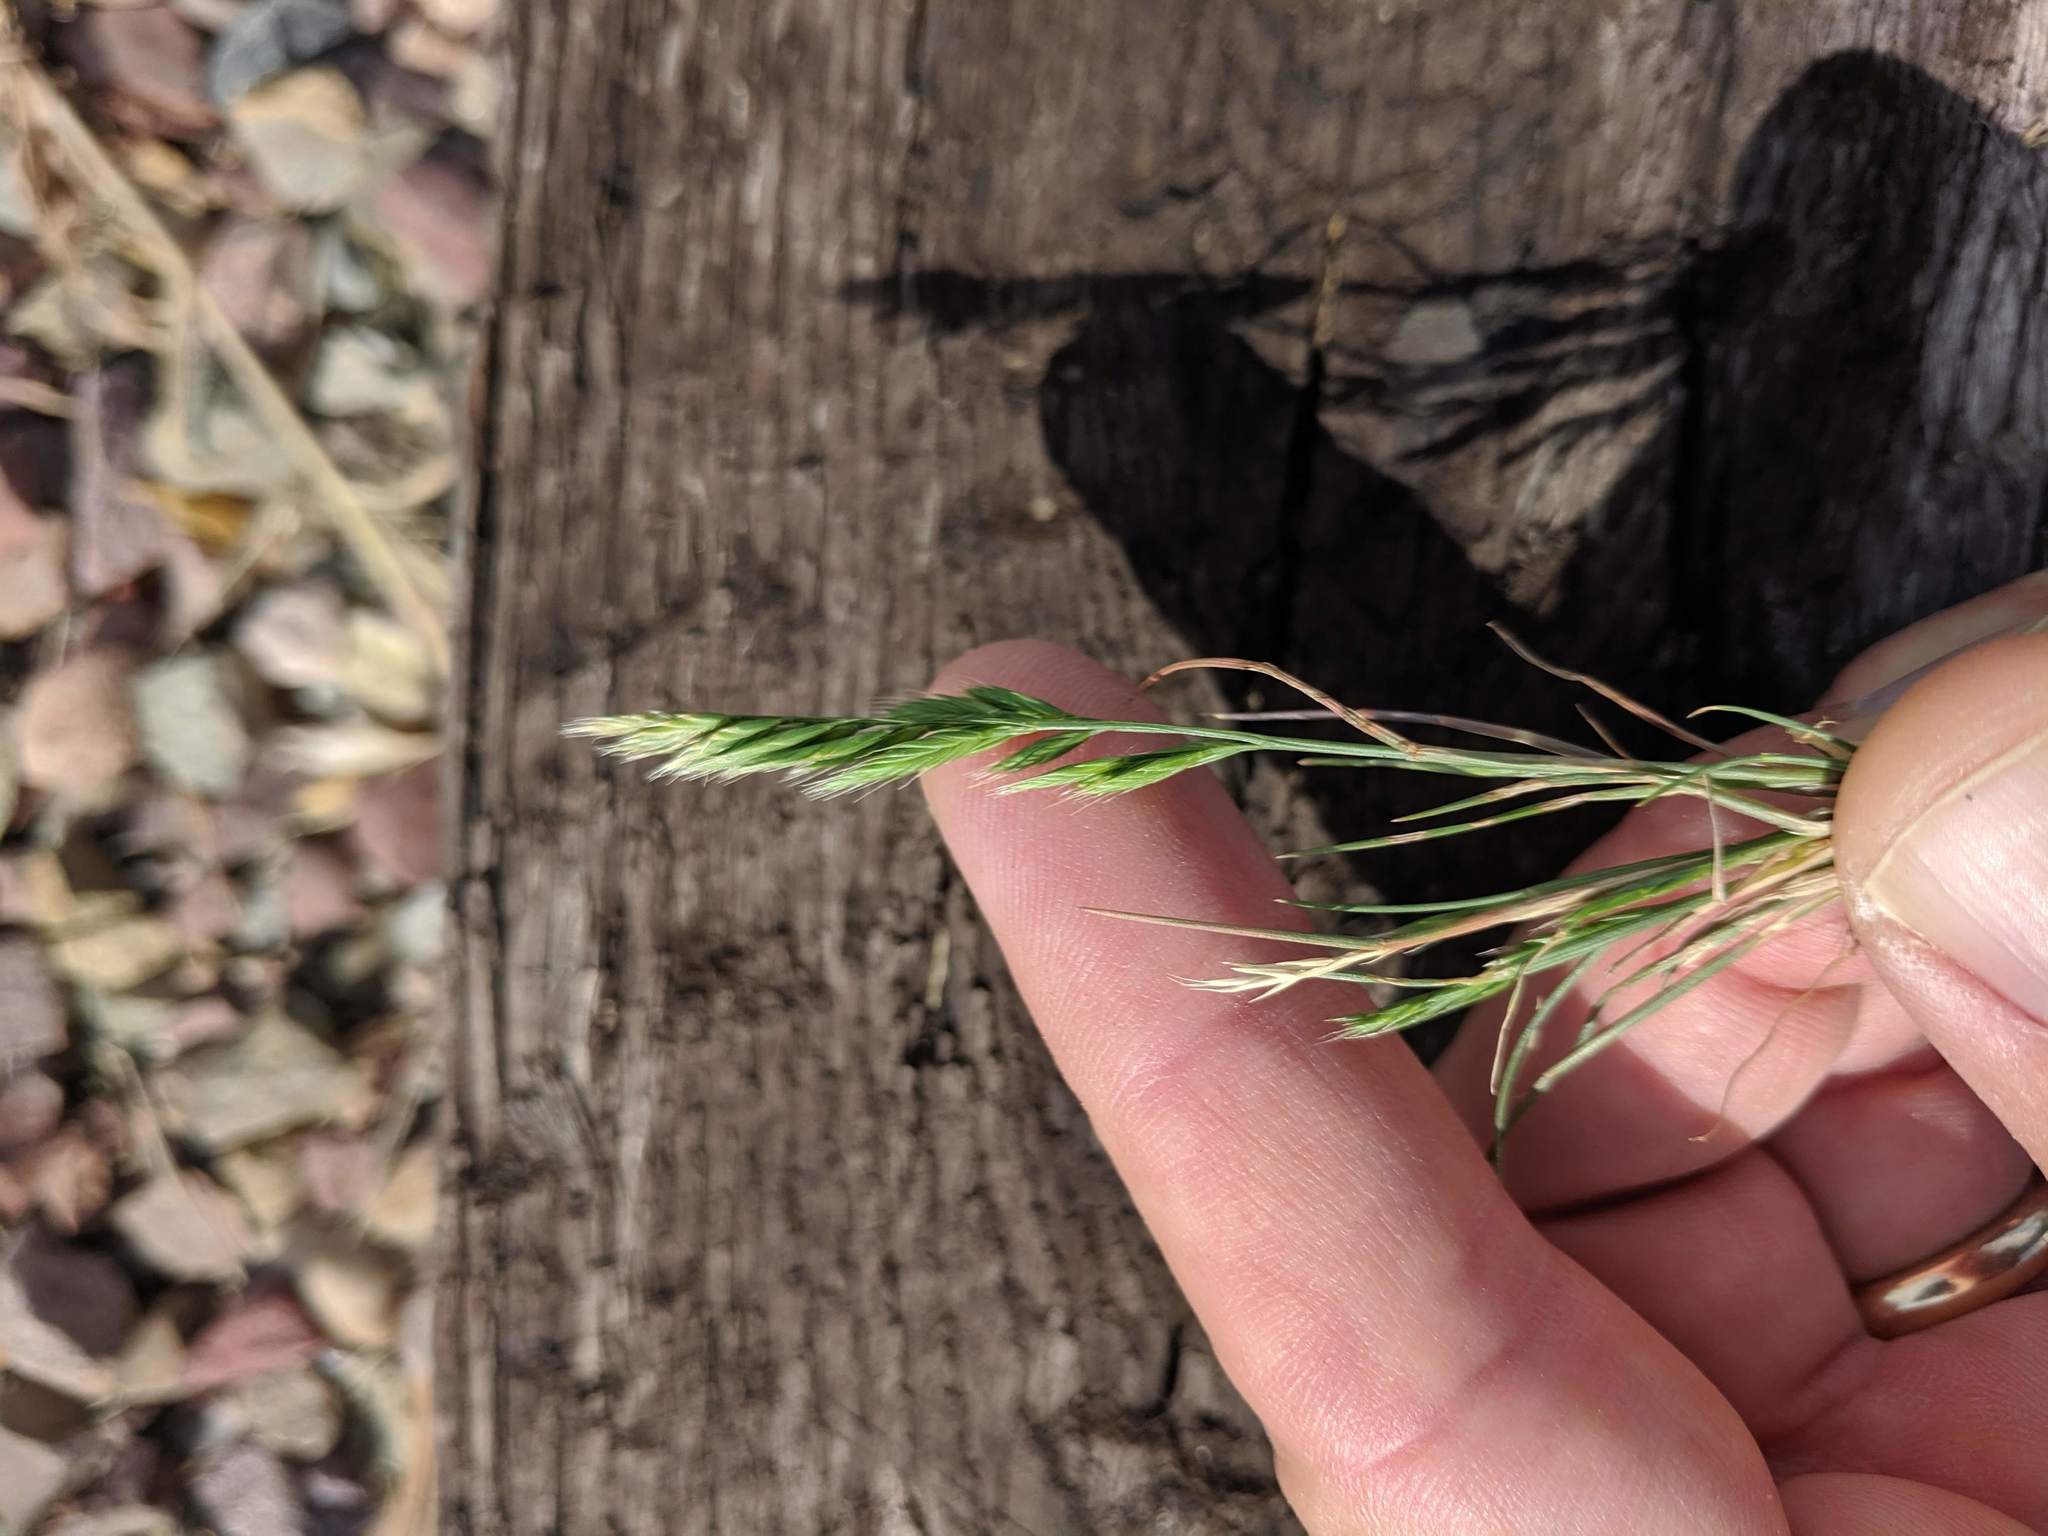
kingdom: Plantae
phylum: Tracheophyta
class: Liliopsida
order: Poales
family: Poaceae
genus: Festuca
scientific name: Festuca octoflora
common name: Sixweeks grass
